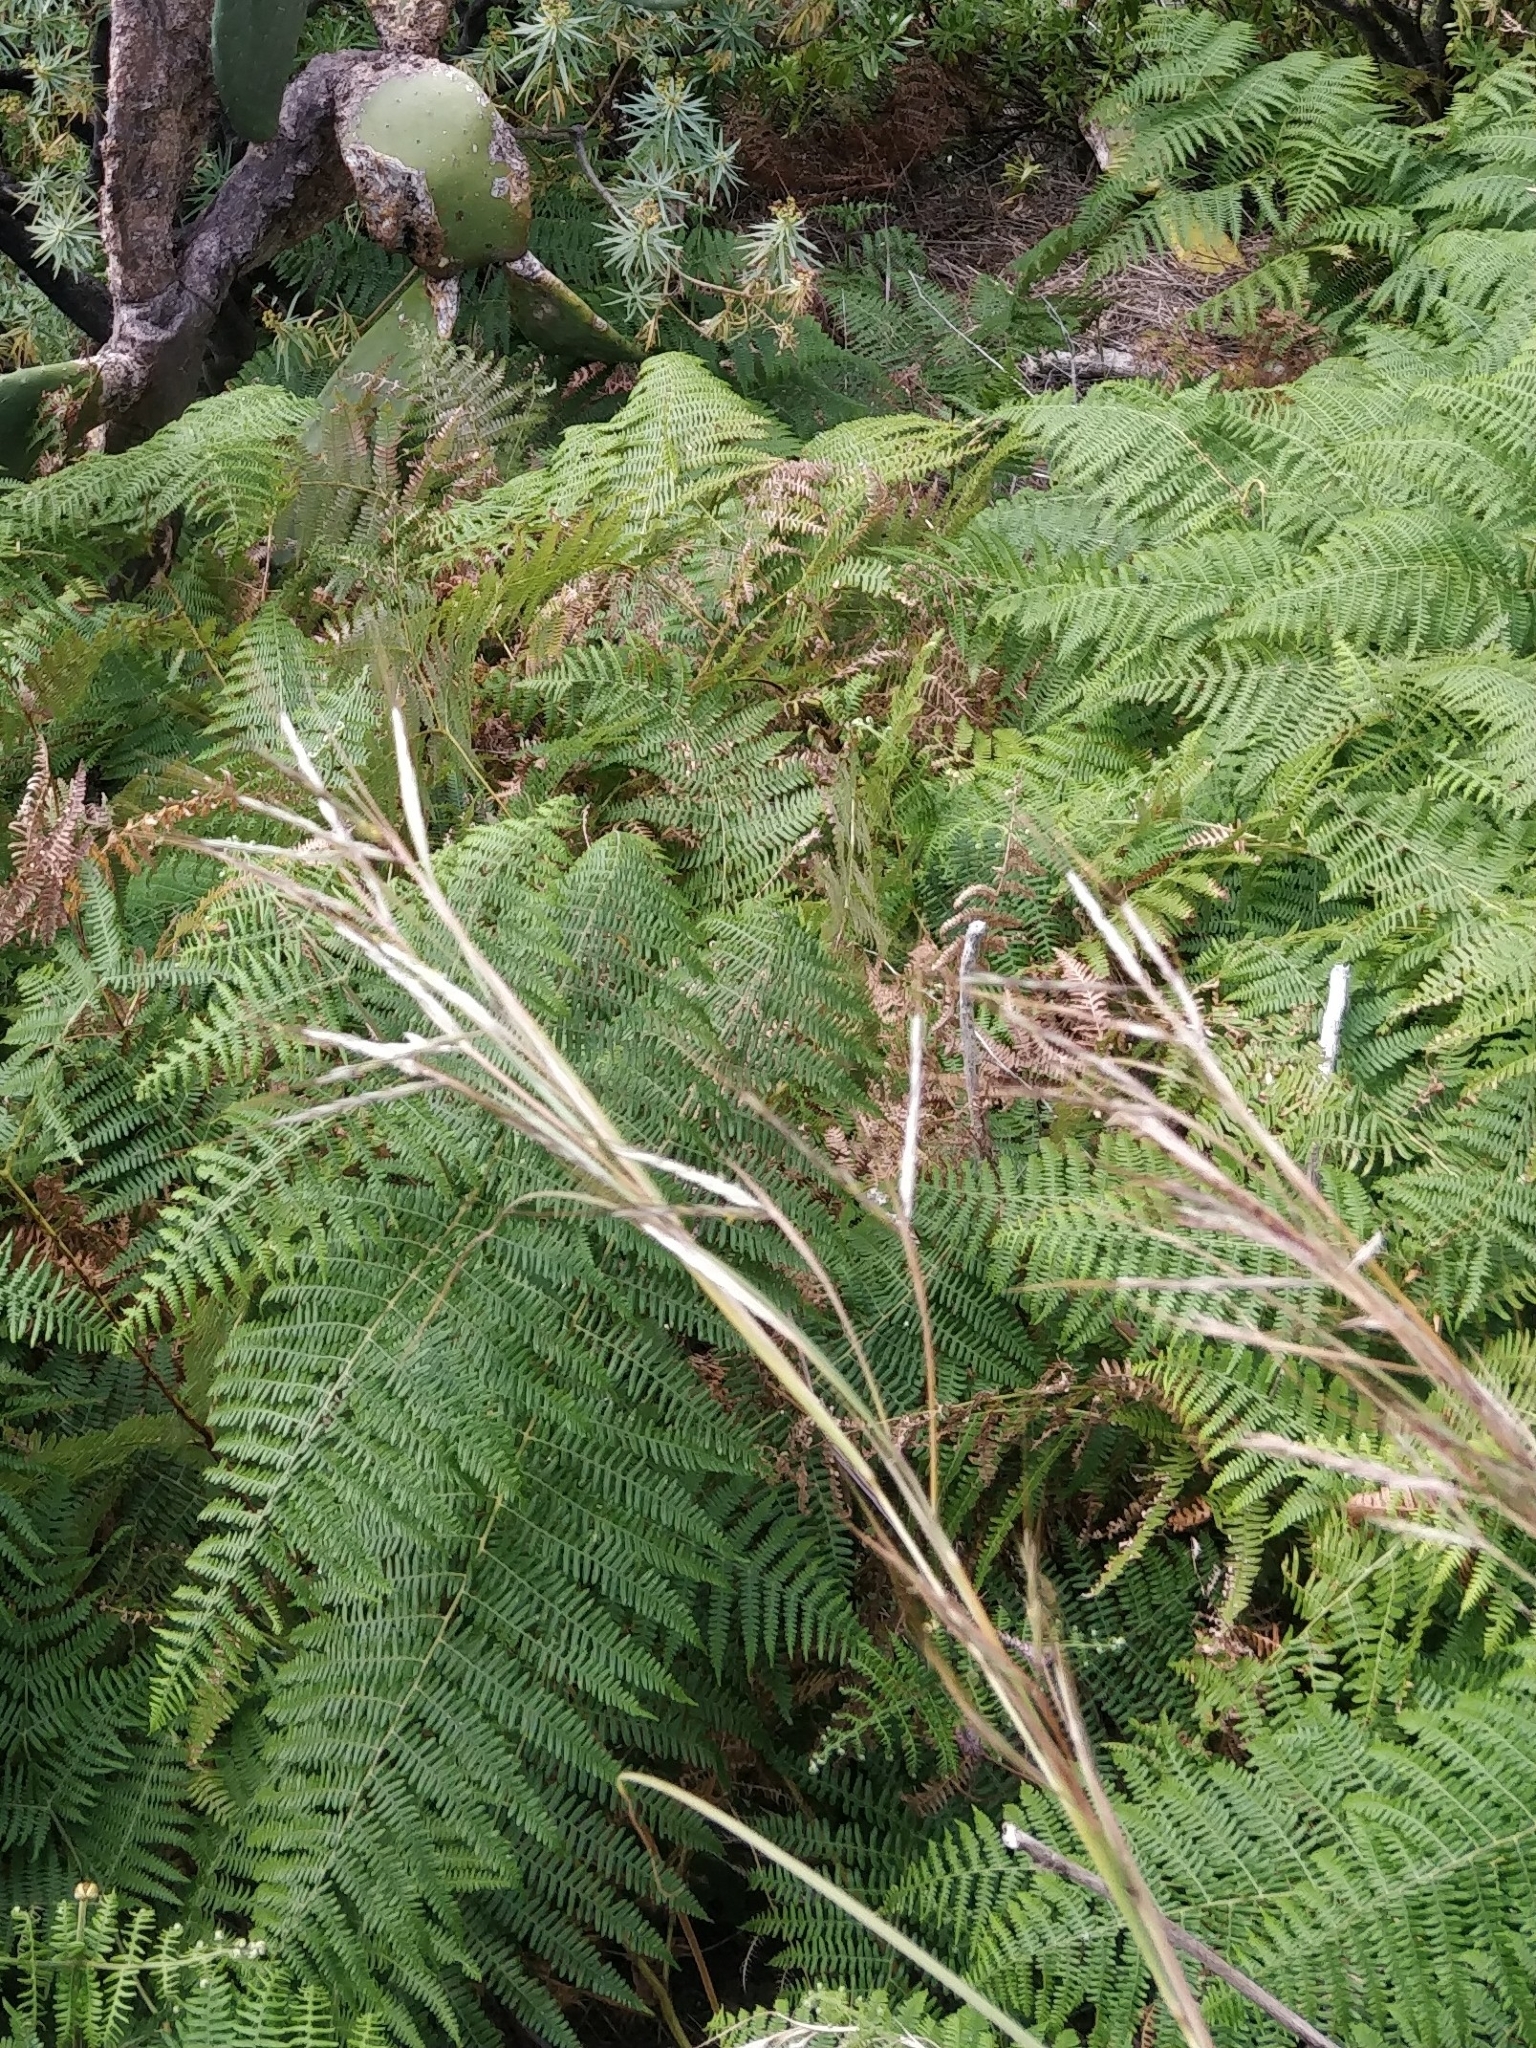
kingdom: Plantae
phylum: Tracheophyta
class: Polypodiopsida
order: Polypodiales
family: Dennstaedtiaceae
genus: Pteridium
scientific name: Pteridium aquilinum
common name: Bracken
